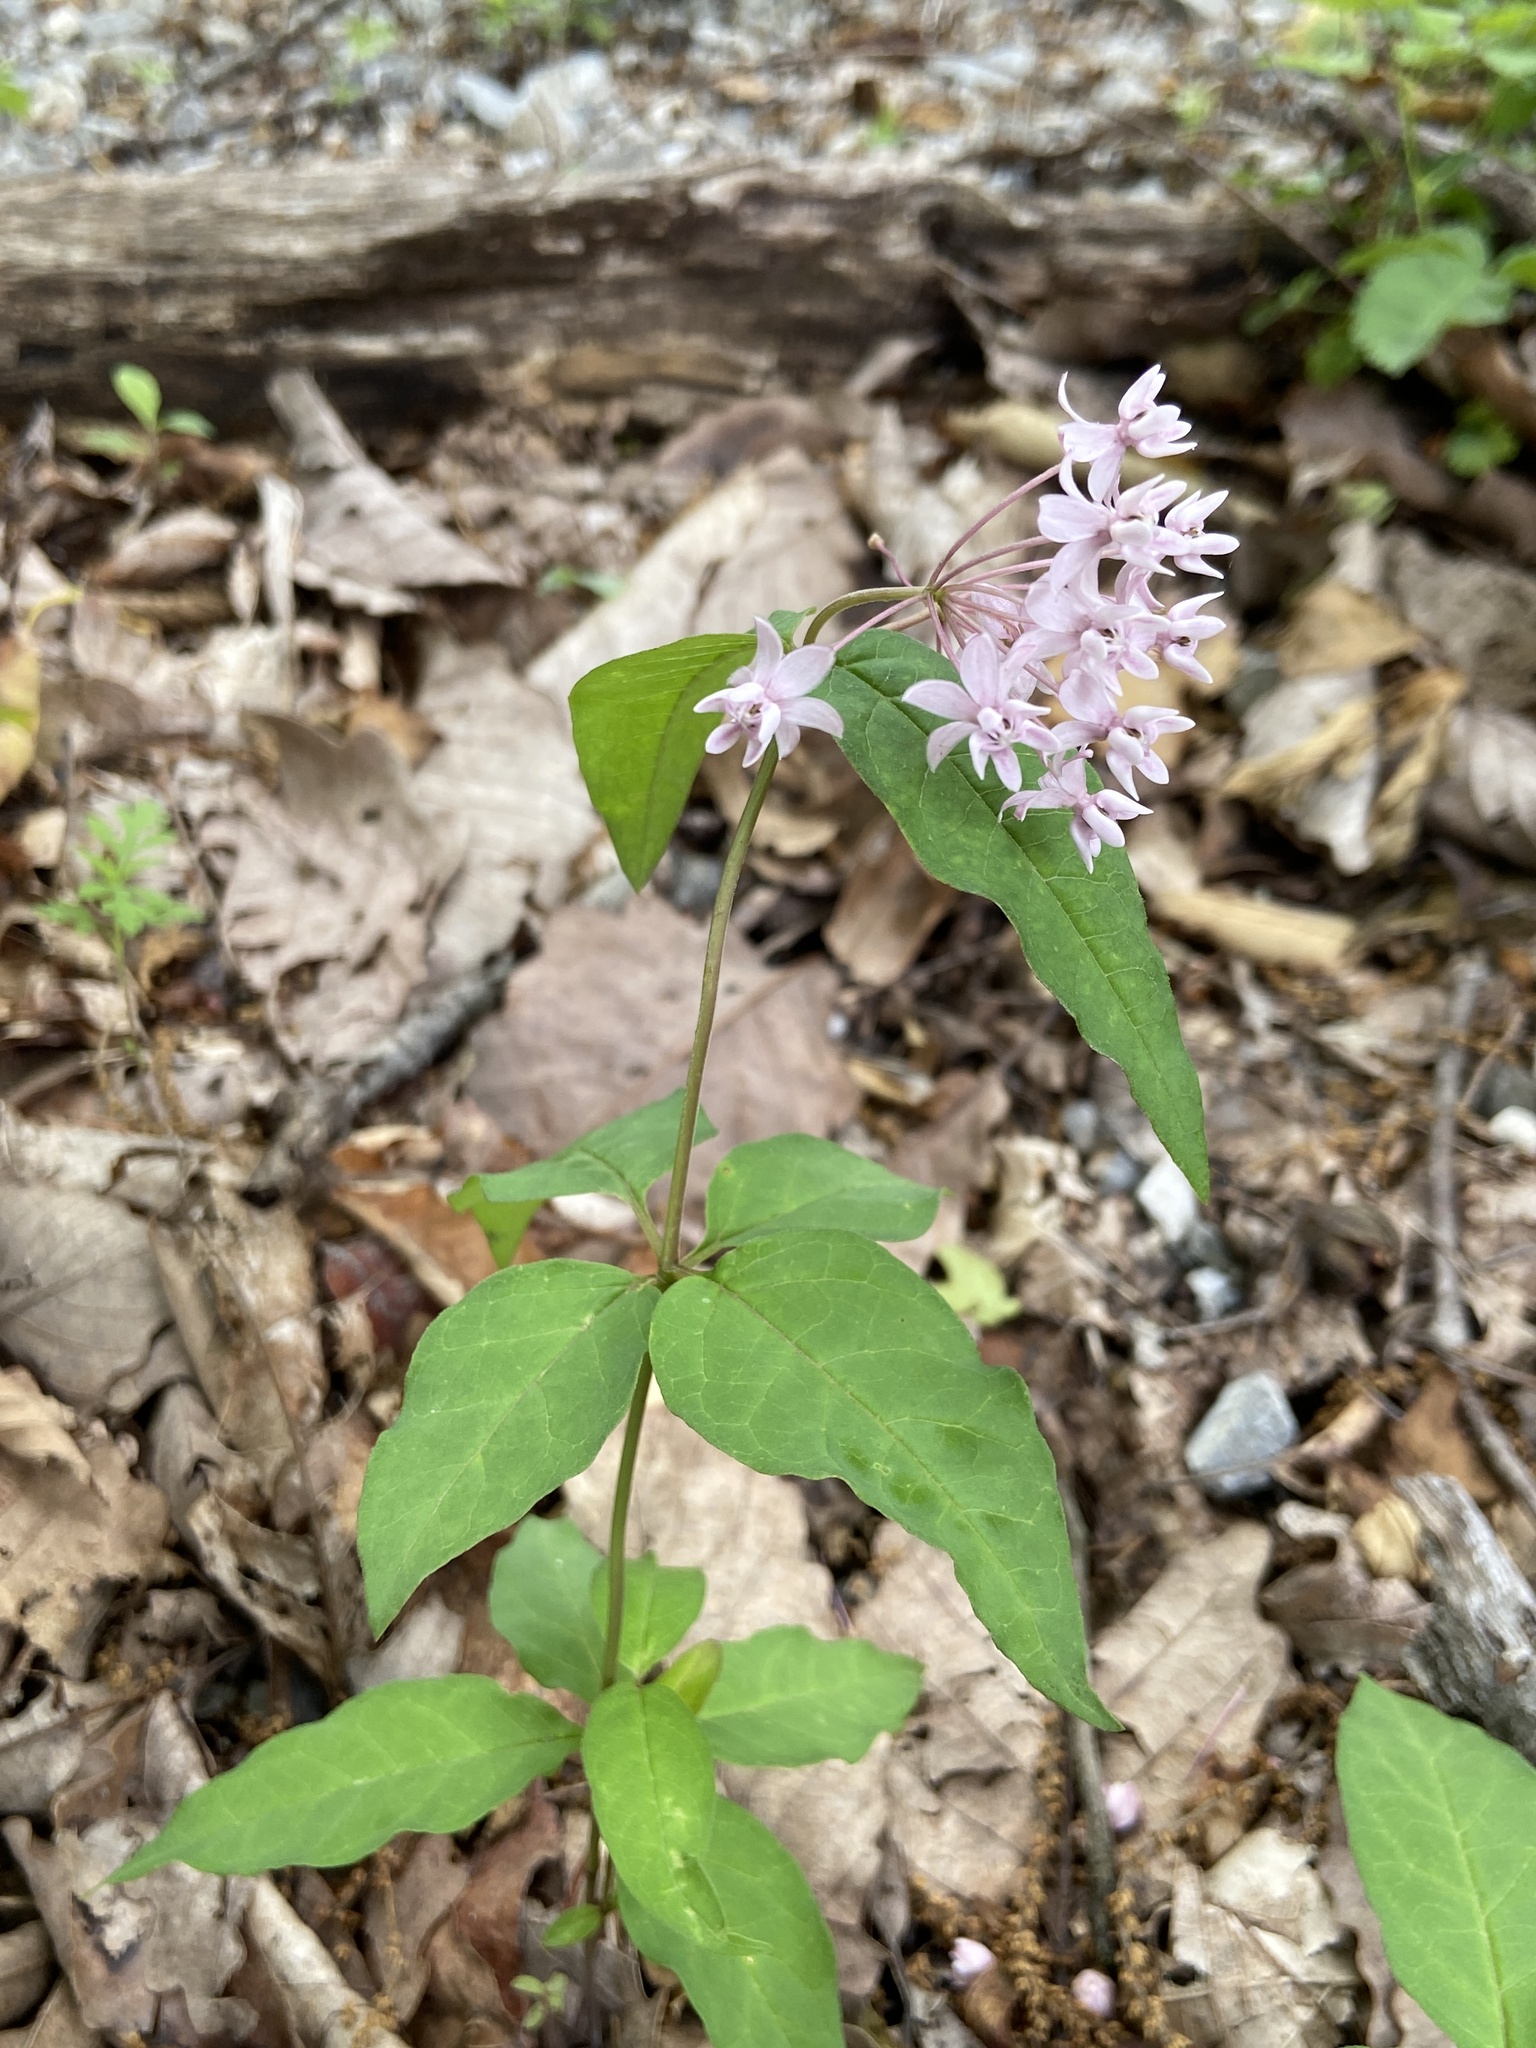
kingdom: Plantae
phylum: Tracheophyta
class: Magnoliopsida
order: Gentianales
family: Apocynaceae
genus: Asclepias
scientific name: Asclepias quadrifolia
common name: Whorled milkweed
